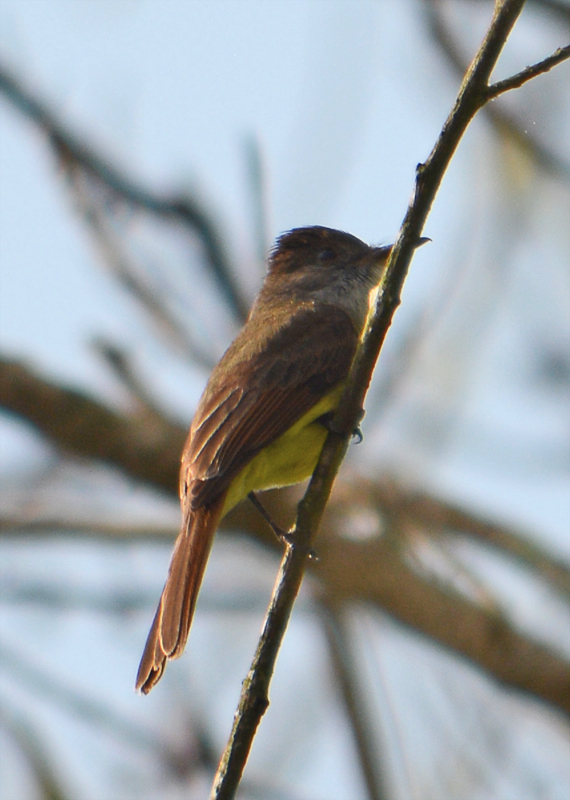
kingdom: Animalia
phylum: Chordata
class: Aves
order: Passeriformes
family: Tyrannidae
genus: Myiarchus
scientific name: Myiarchus tuberculifer
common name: Dusky-capped flycatcher
